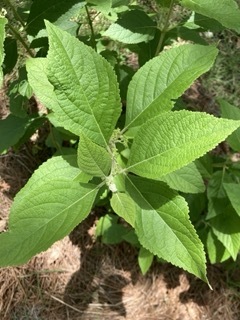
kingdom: Plantae
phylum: Tracheophyta
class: Magnoliopsida
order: Lamiales
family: Lamiaceae
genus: Callicarpa
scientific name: Callicarpa americana
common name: American beautyberry
